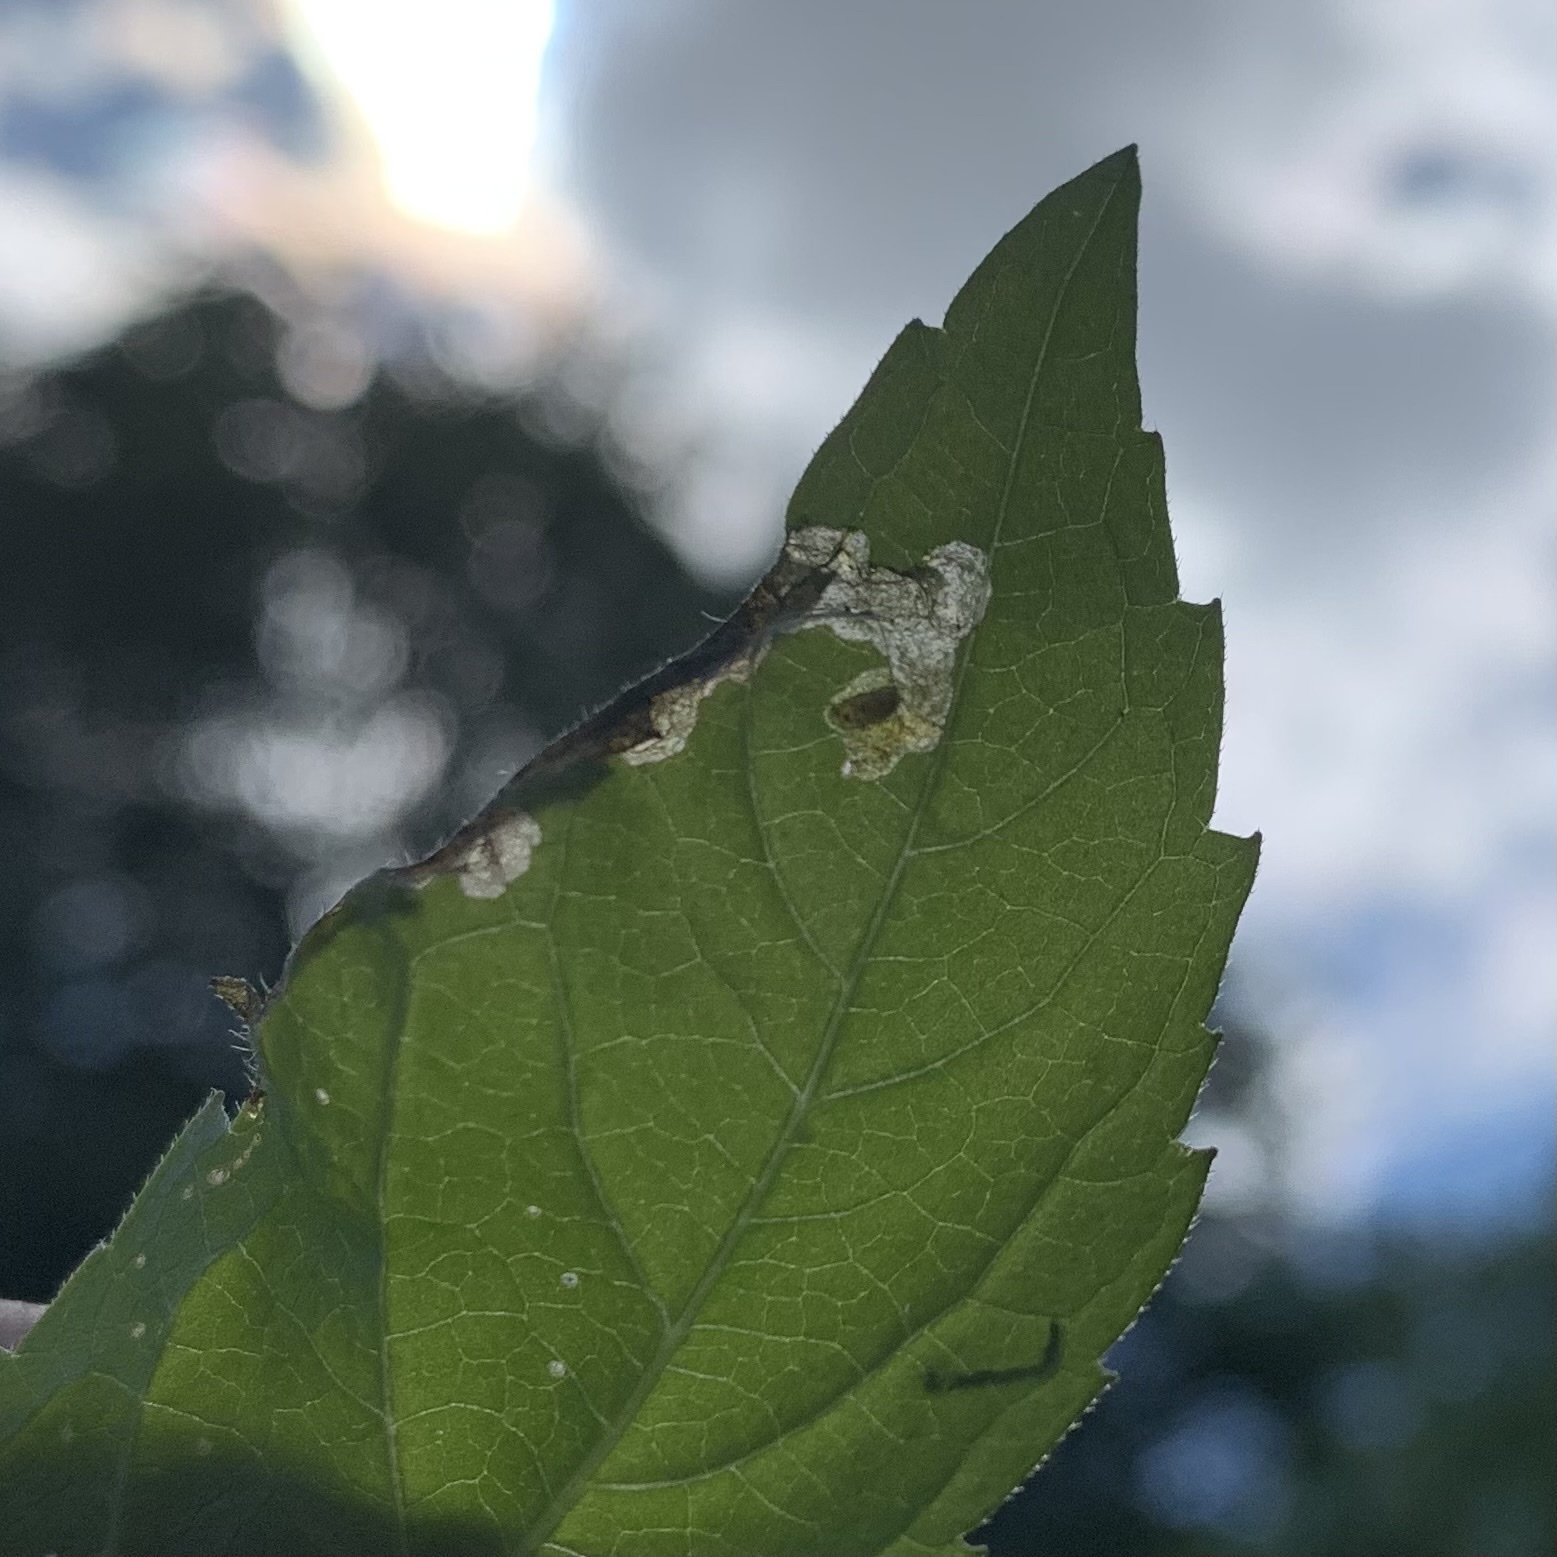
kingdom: Animalia
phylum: Arthropoda
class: Insecta
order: Diptera
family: Agromyzidae
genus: Agromyza
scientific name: Agromyza ambrosivora
